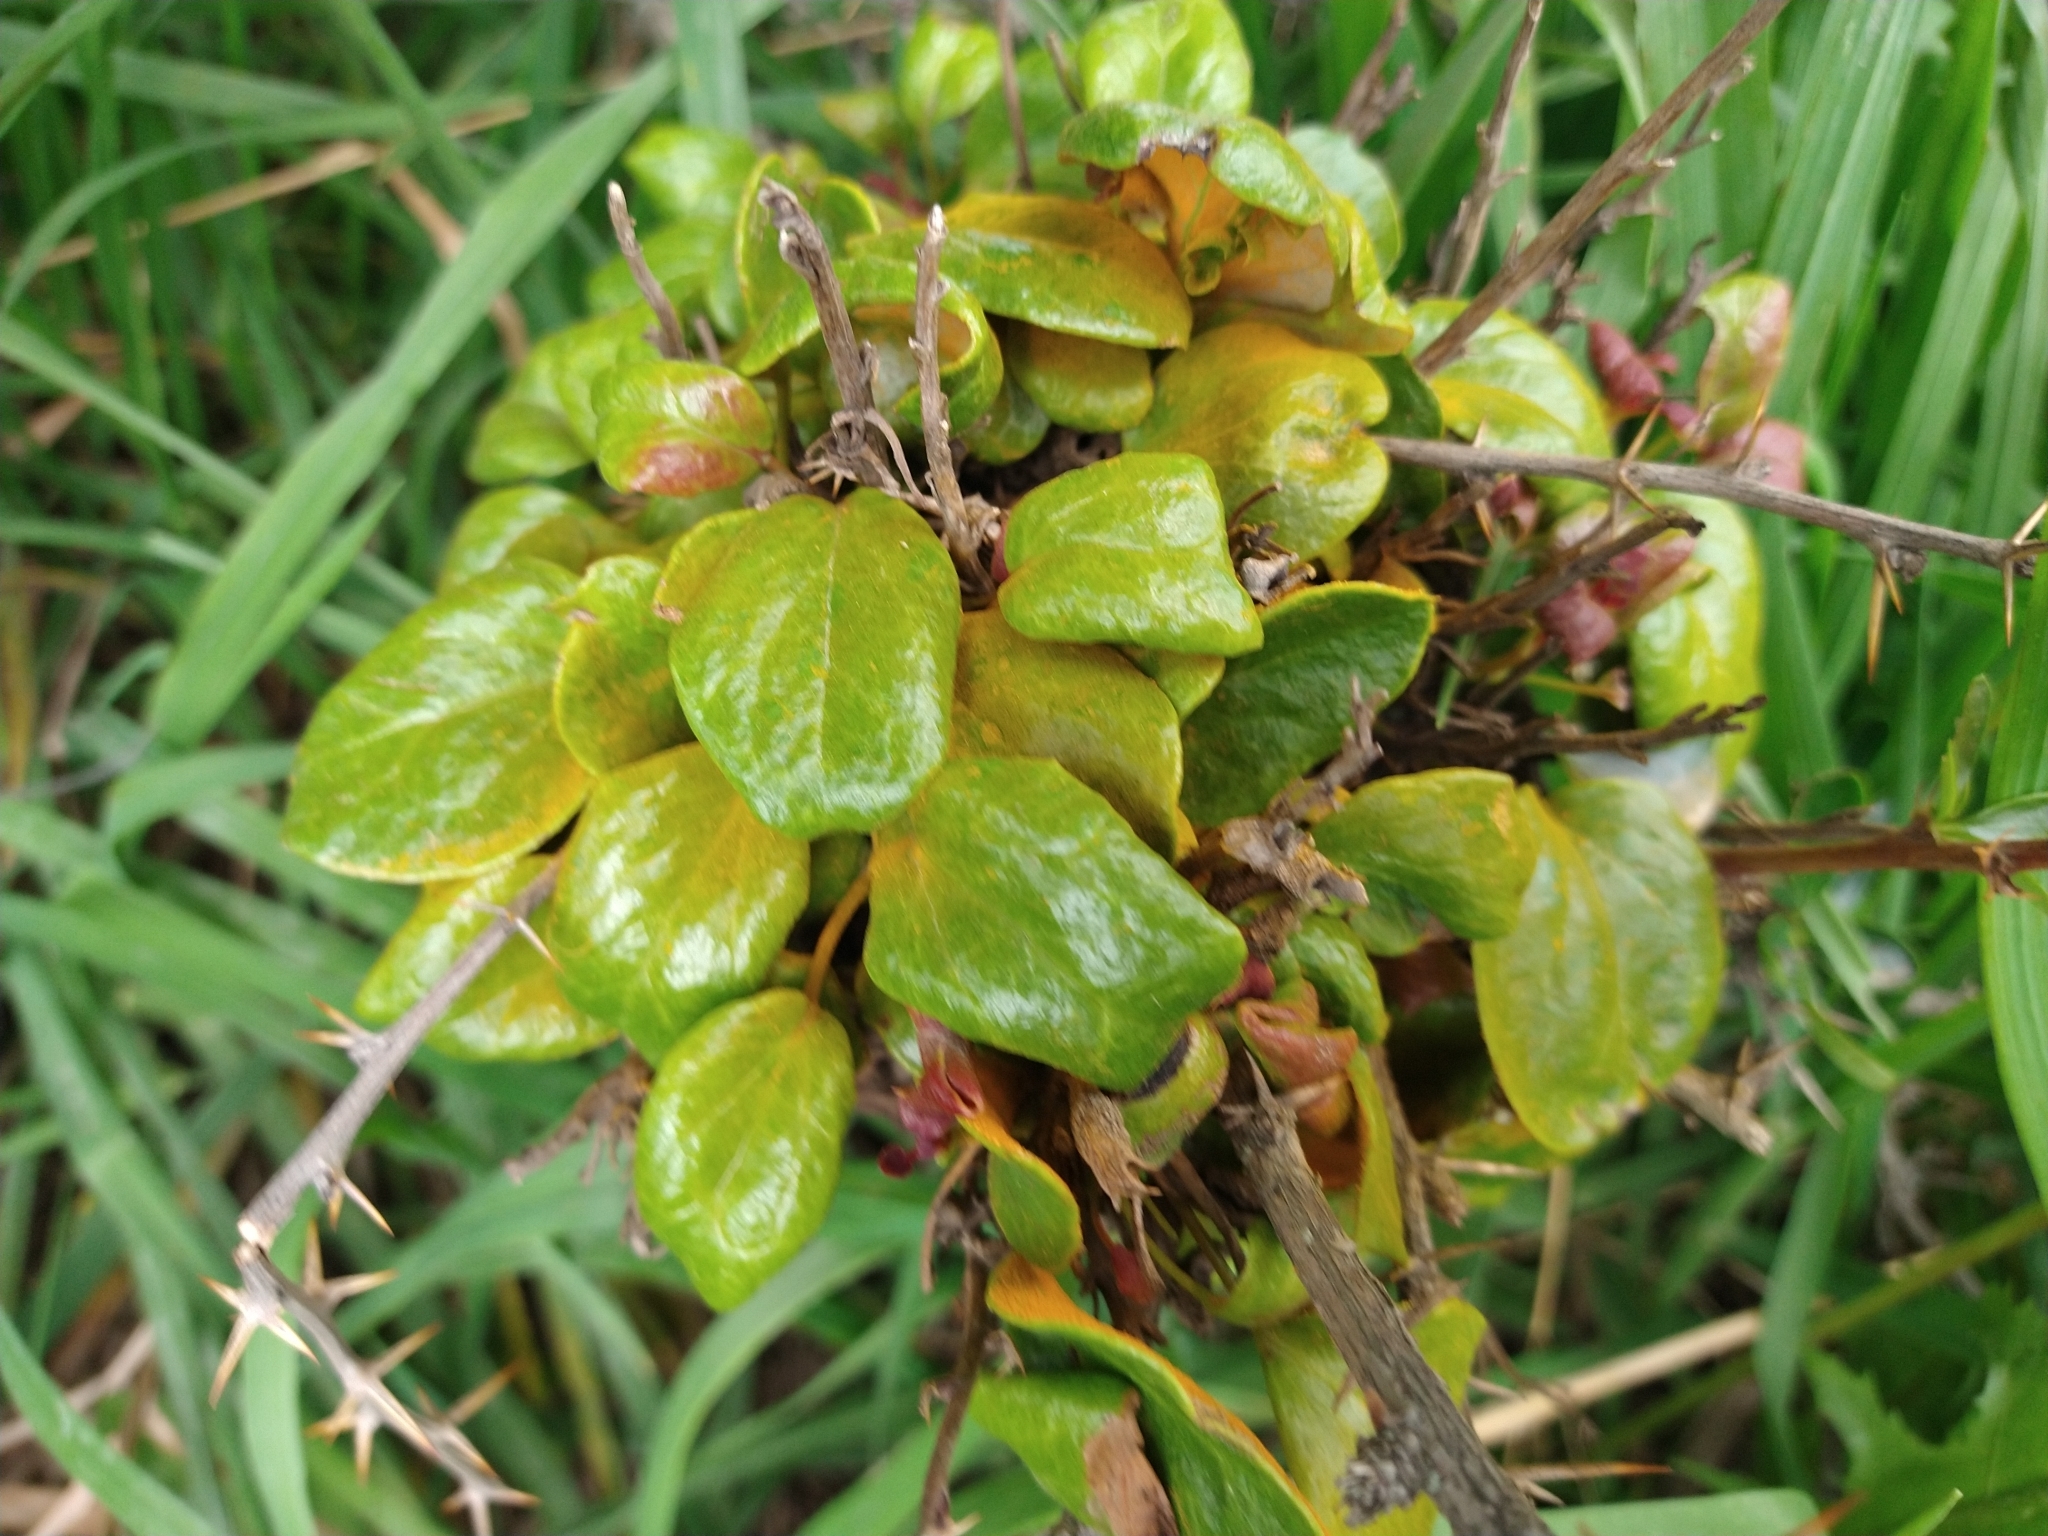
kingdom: Fungi
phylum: Basidiomycota
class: Pucciniomycetes
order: Pucciniales
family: Pucciniaceae
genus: Puccinia
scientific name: Puccinia magellanica
